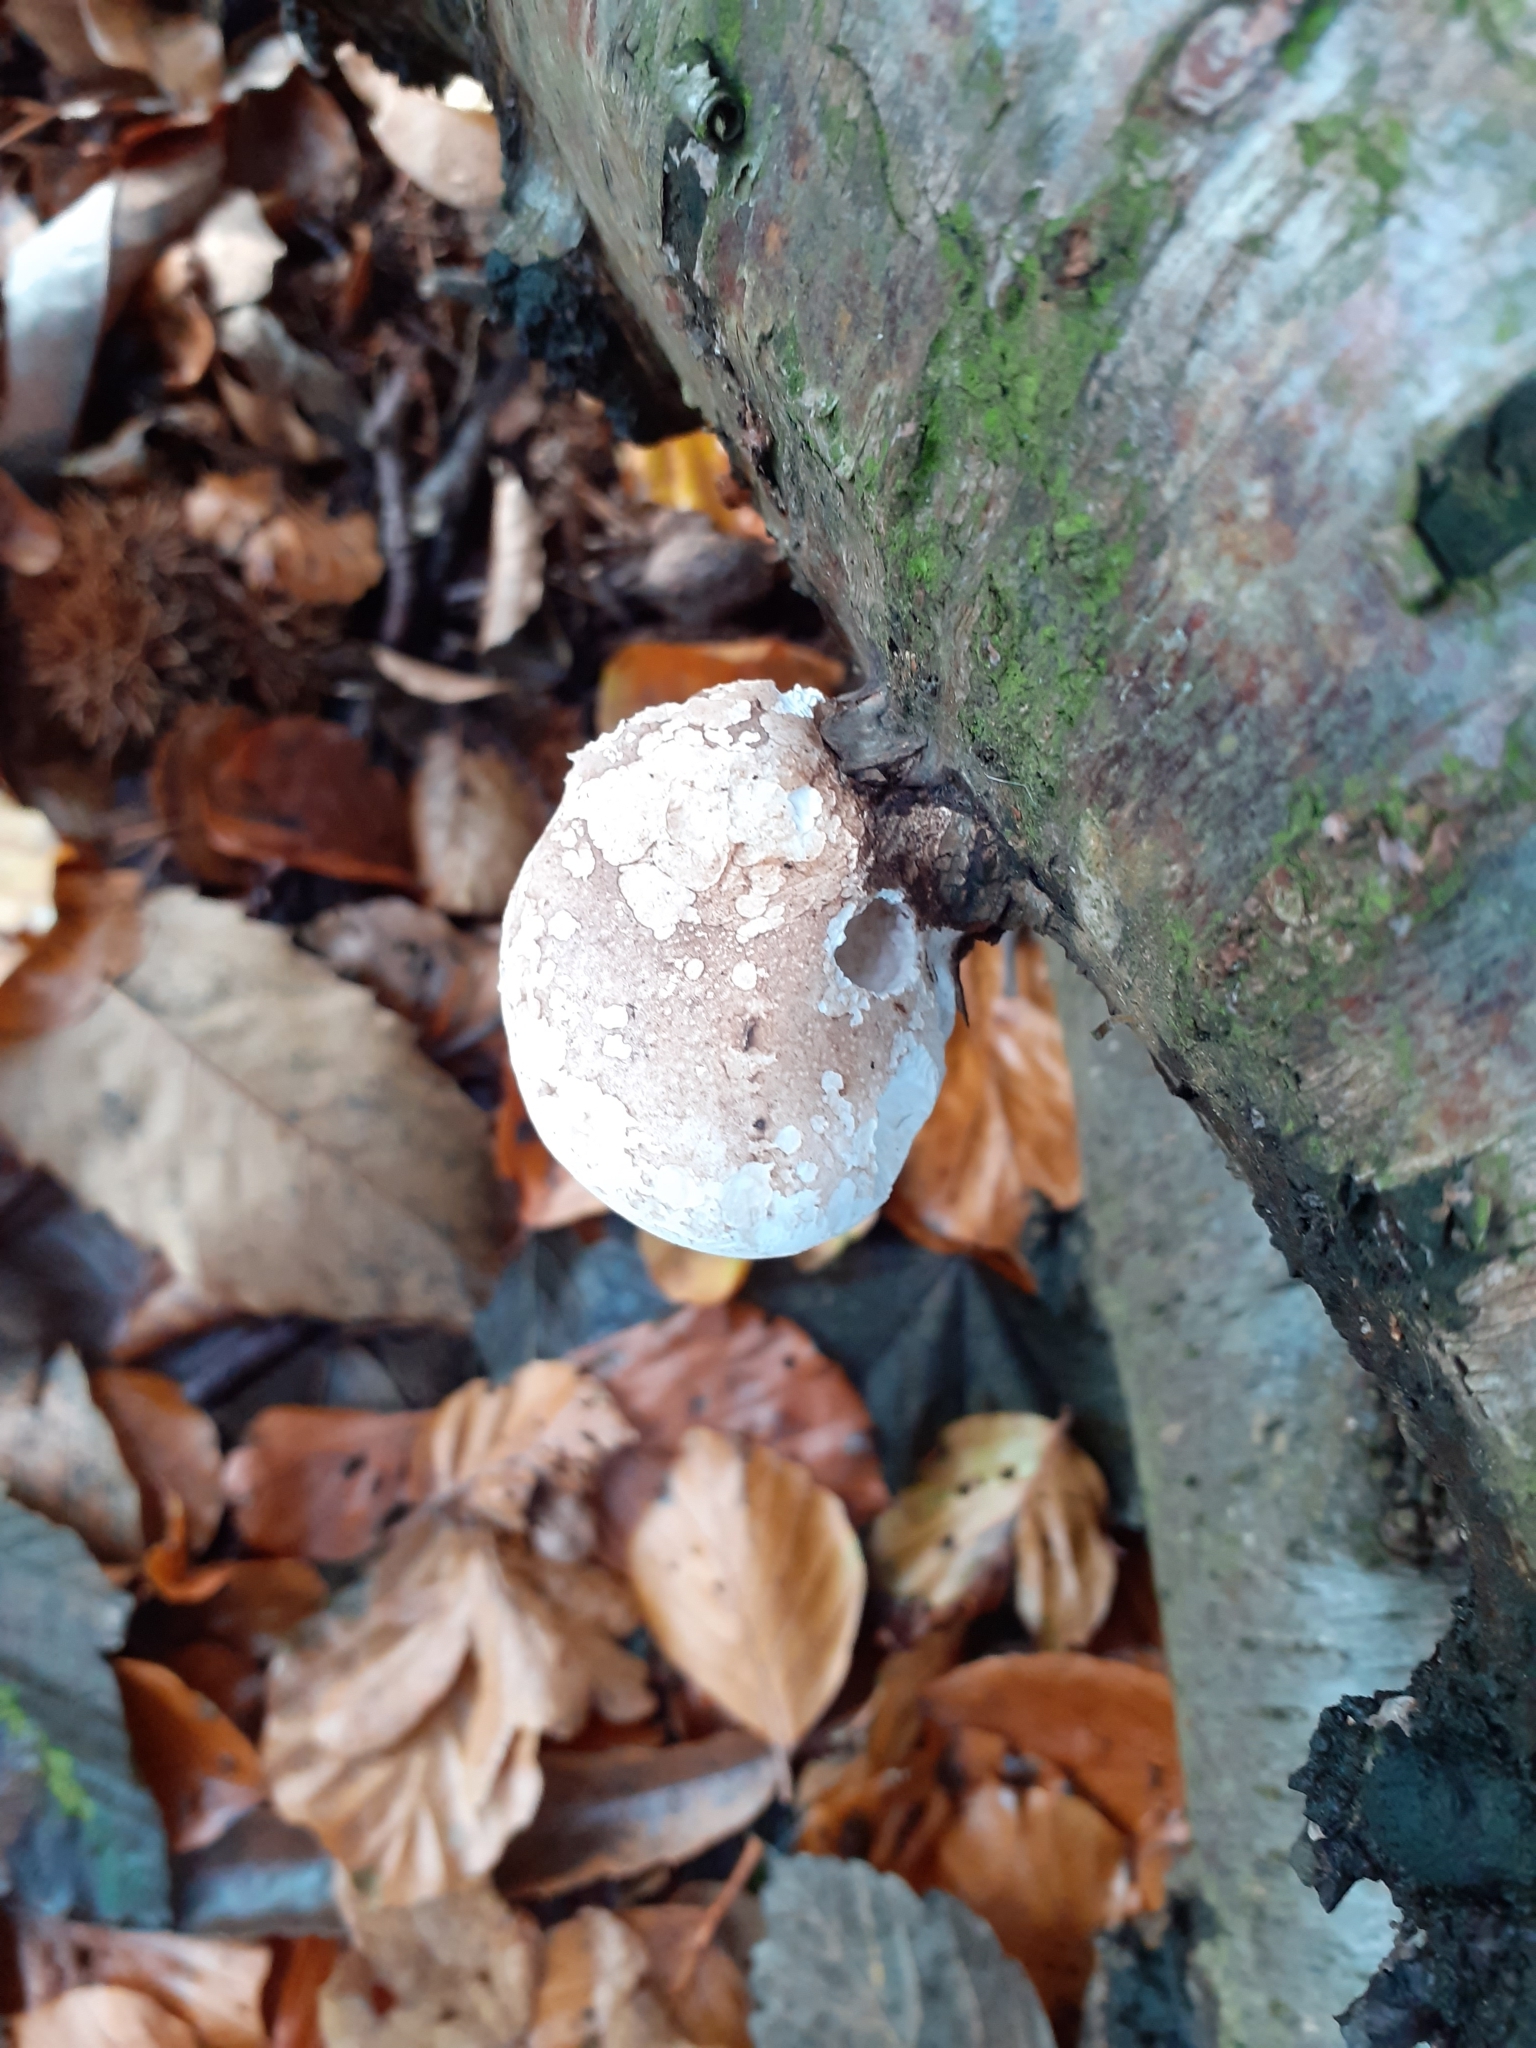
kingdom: Fungi
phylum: Basidiomycota
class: Agaricomycetes
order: Polyporales
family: Fomitopsidaceae
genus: Fomitopsis
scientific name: Fomitopsis betulina
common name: Birch polypore
